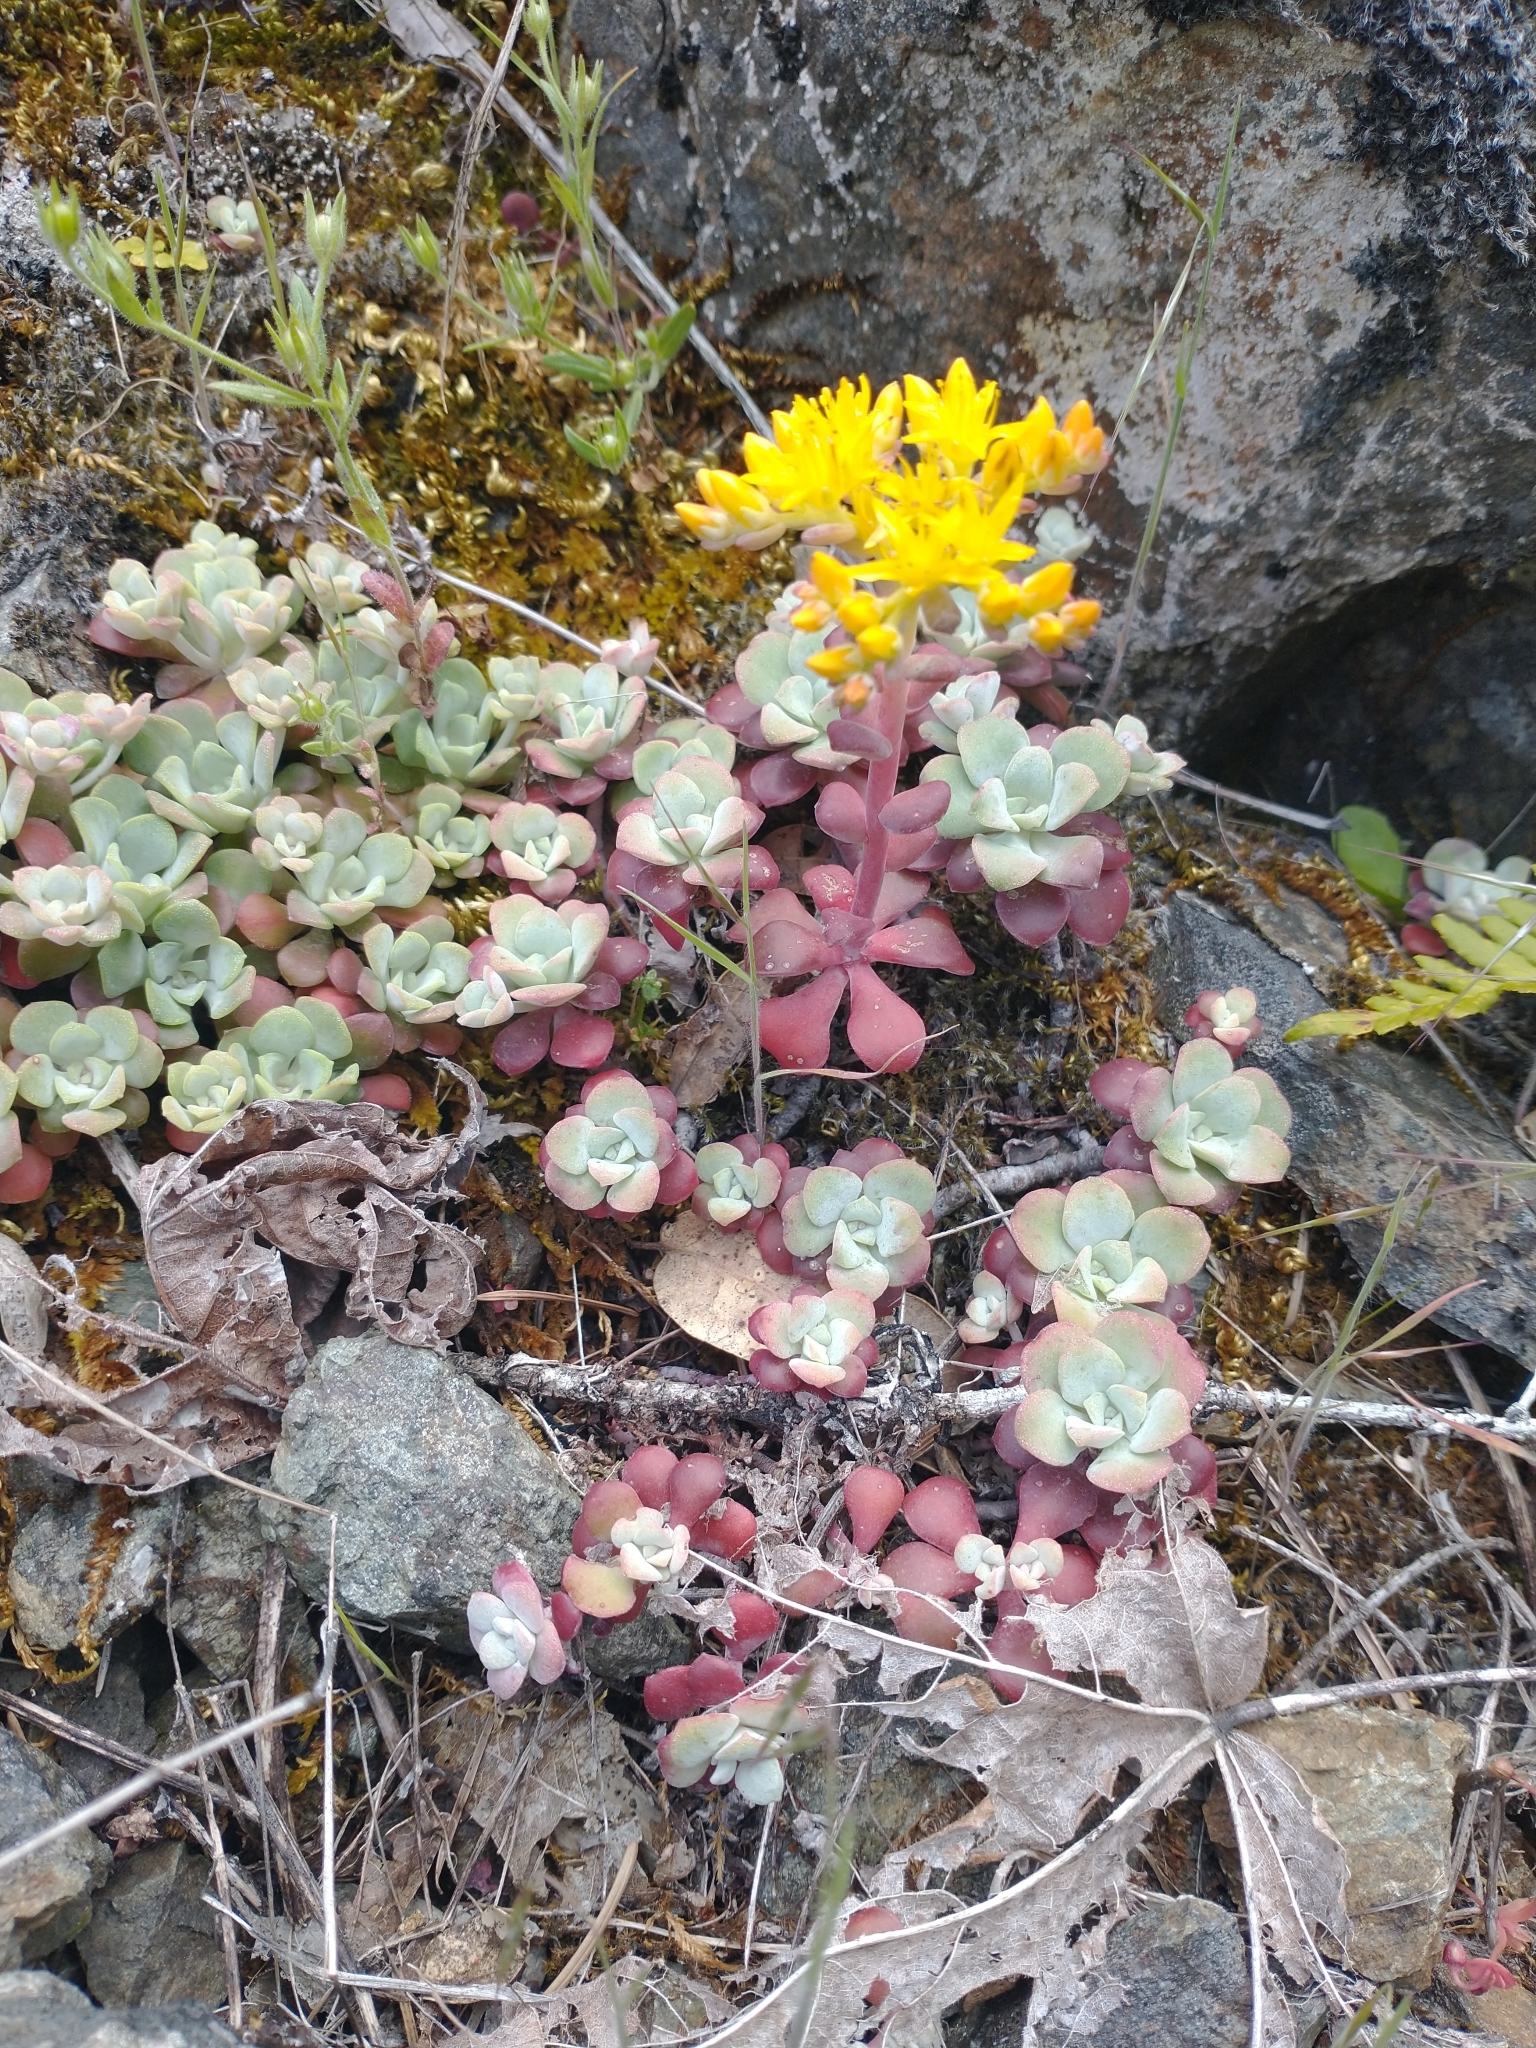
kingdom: Plantae
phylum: Tracheophyta
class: Magnoliopsida
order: Saxifragales
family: Crassulaceae
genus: Sedum
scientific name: Sedum spathulifolium
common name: Colorado stonecrop
